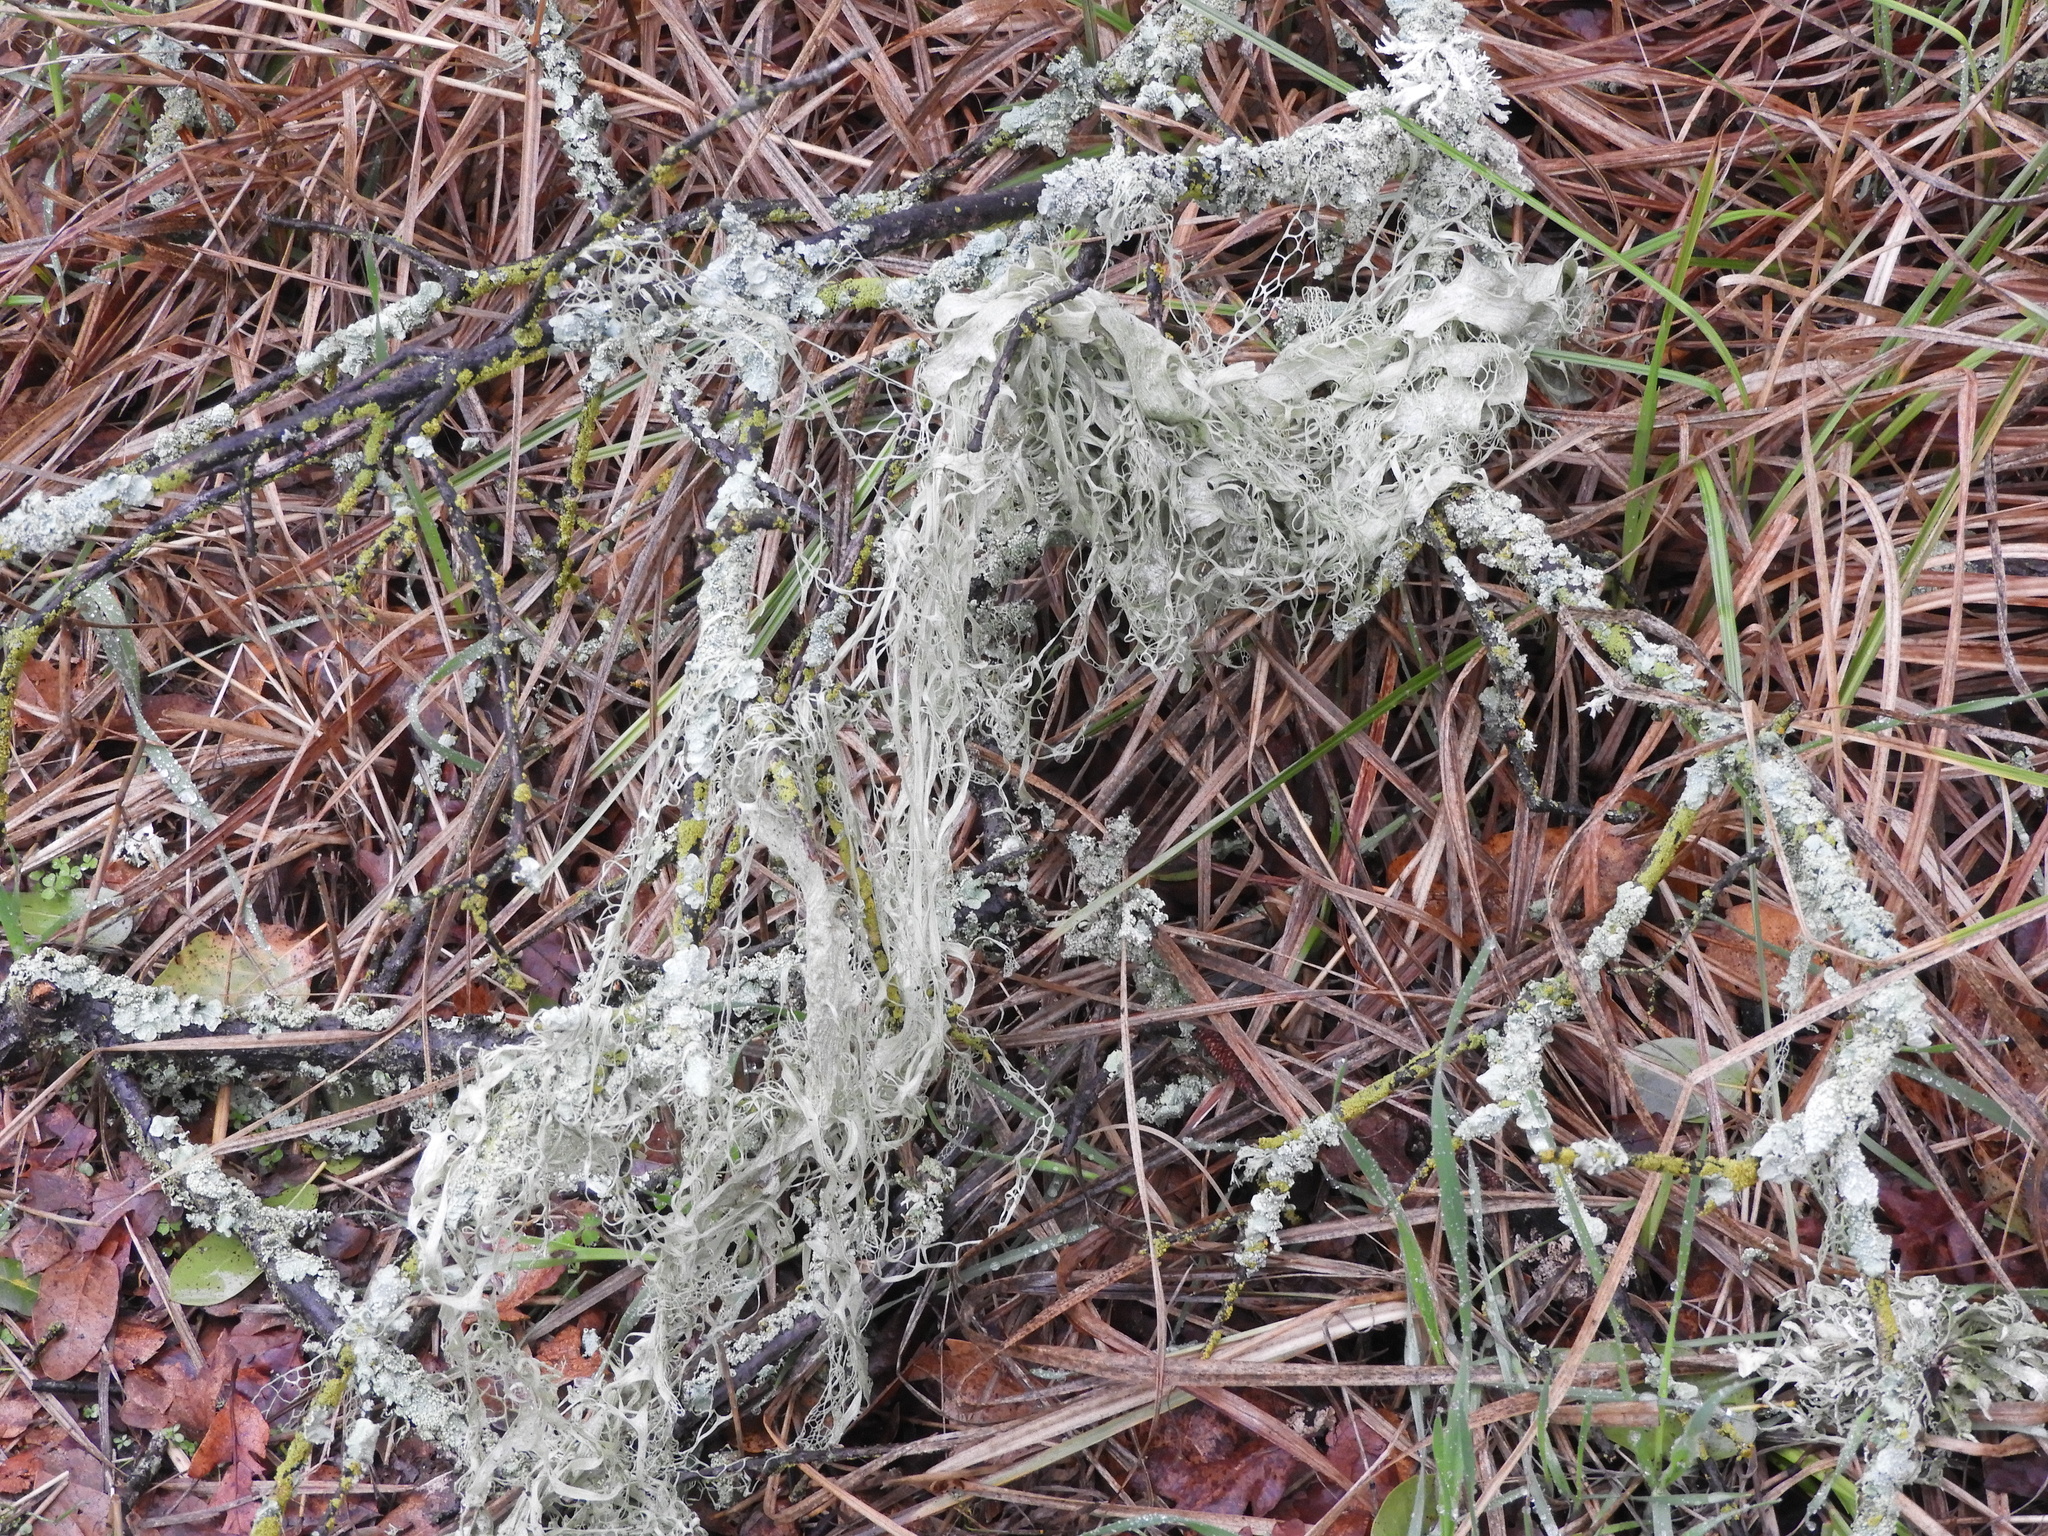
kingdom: Fungi
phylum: Ascomycota
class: Lecanoromycetes
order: Lecanorales
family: Ramalinaceae
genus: Ramalina
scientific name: Ramalina menziesii
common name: Lace lichen
